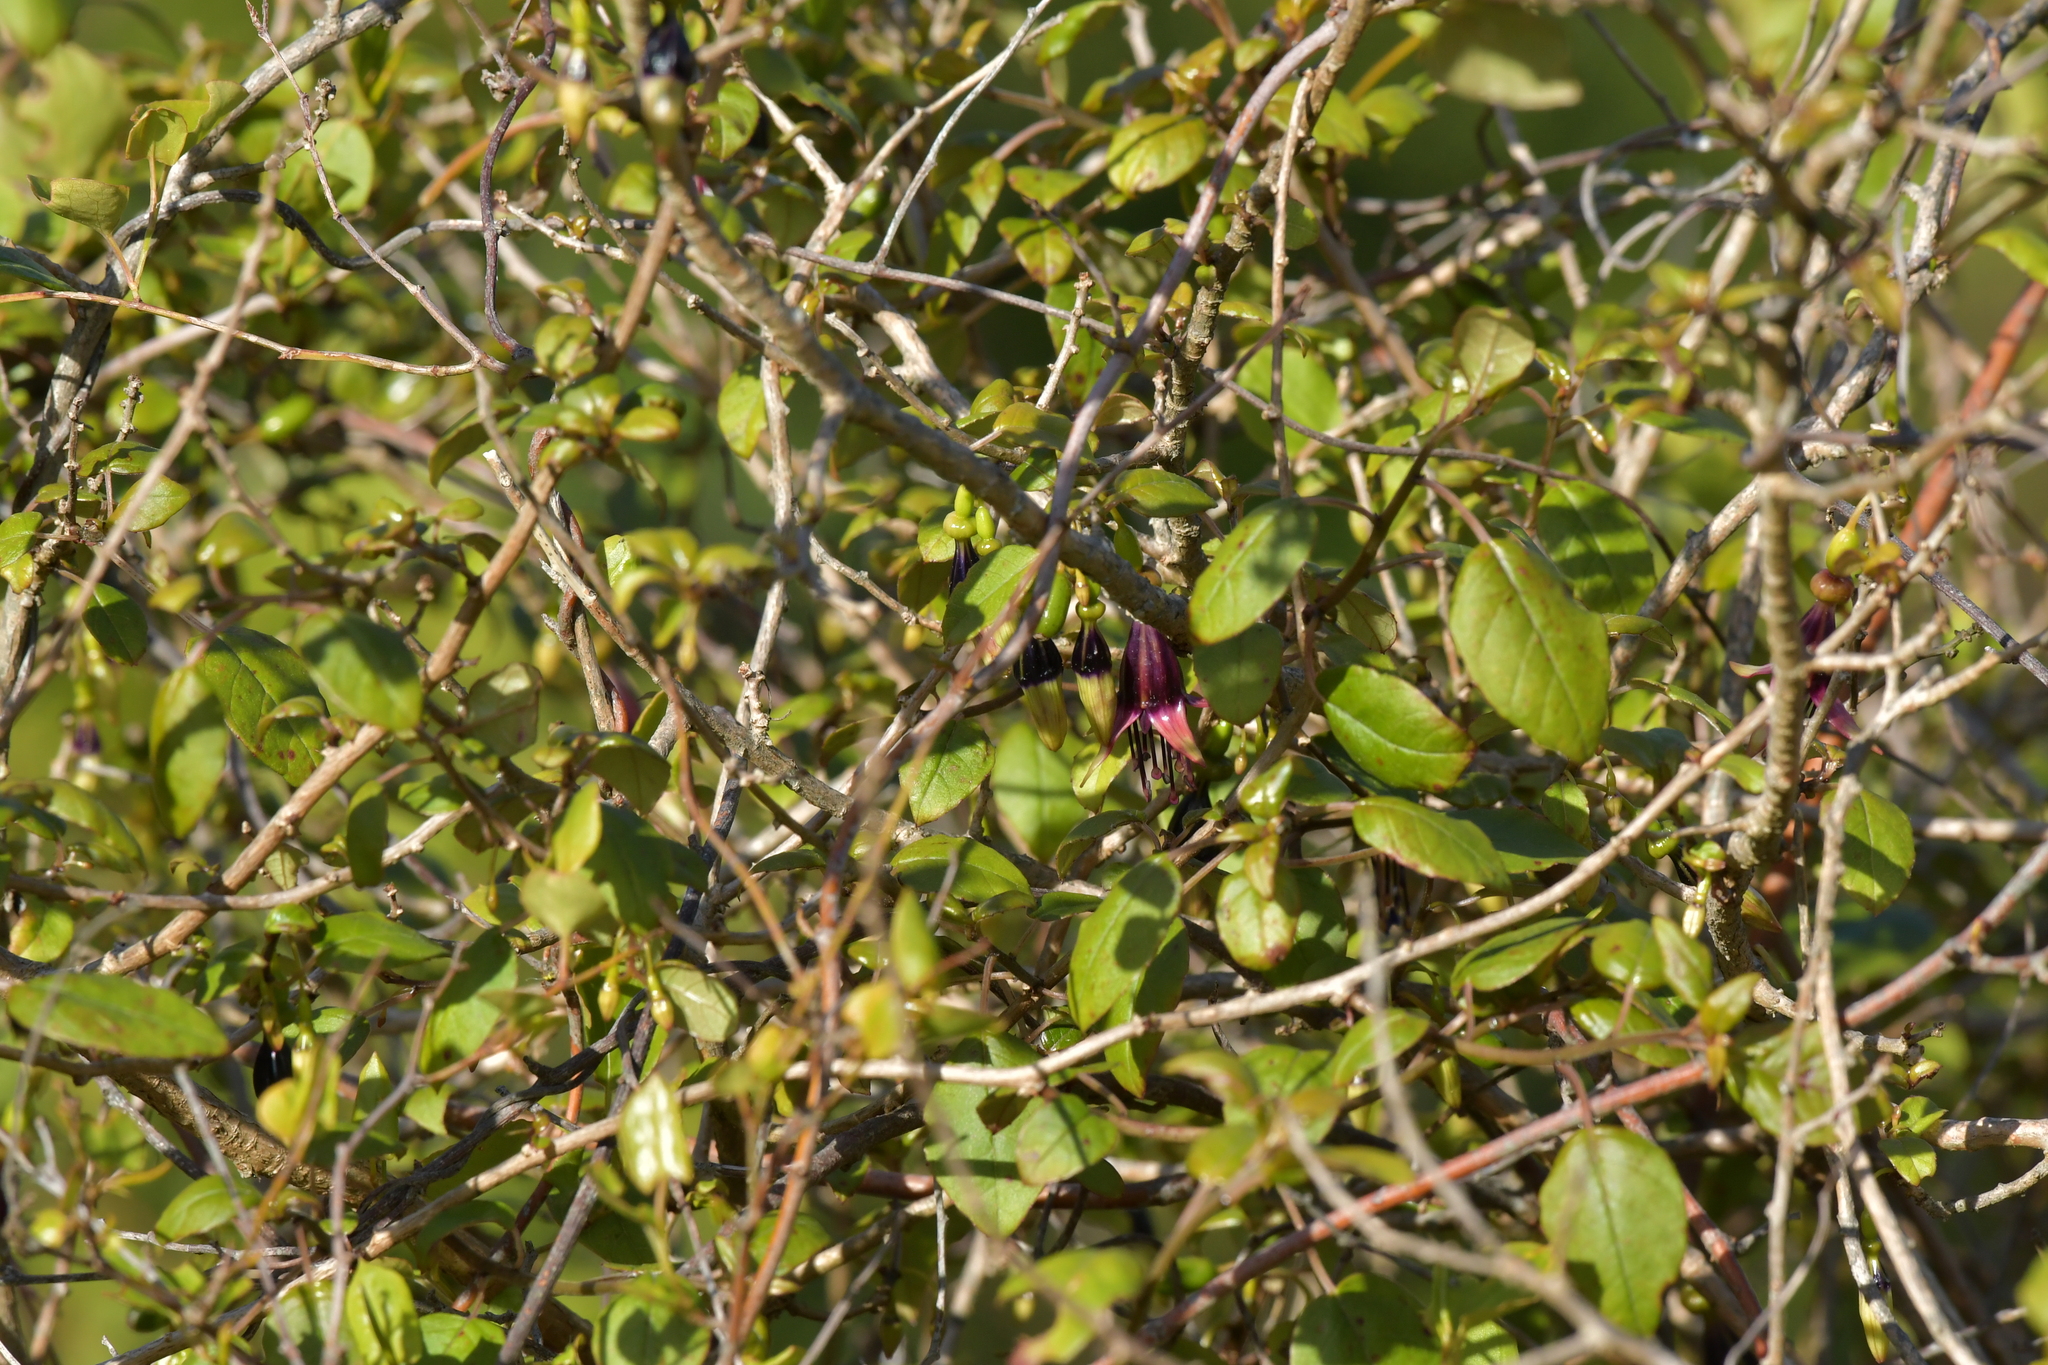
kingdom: Plantae
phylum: Tracheophyta
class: Magnoliopsida
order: Myrtales
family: Onagraceae
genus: Fuchsia
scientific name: Fuchsia excorticata
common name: Tree fuchsia
